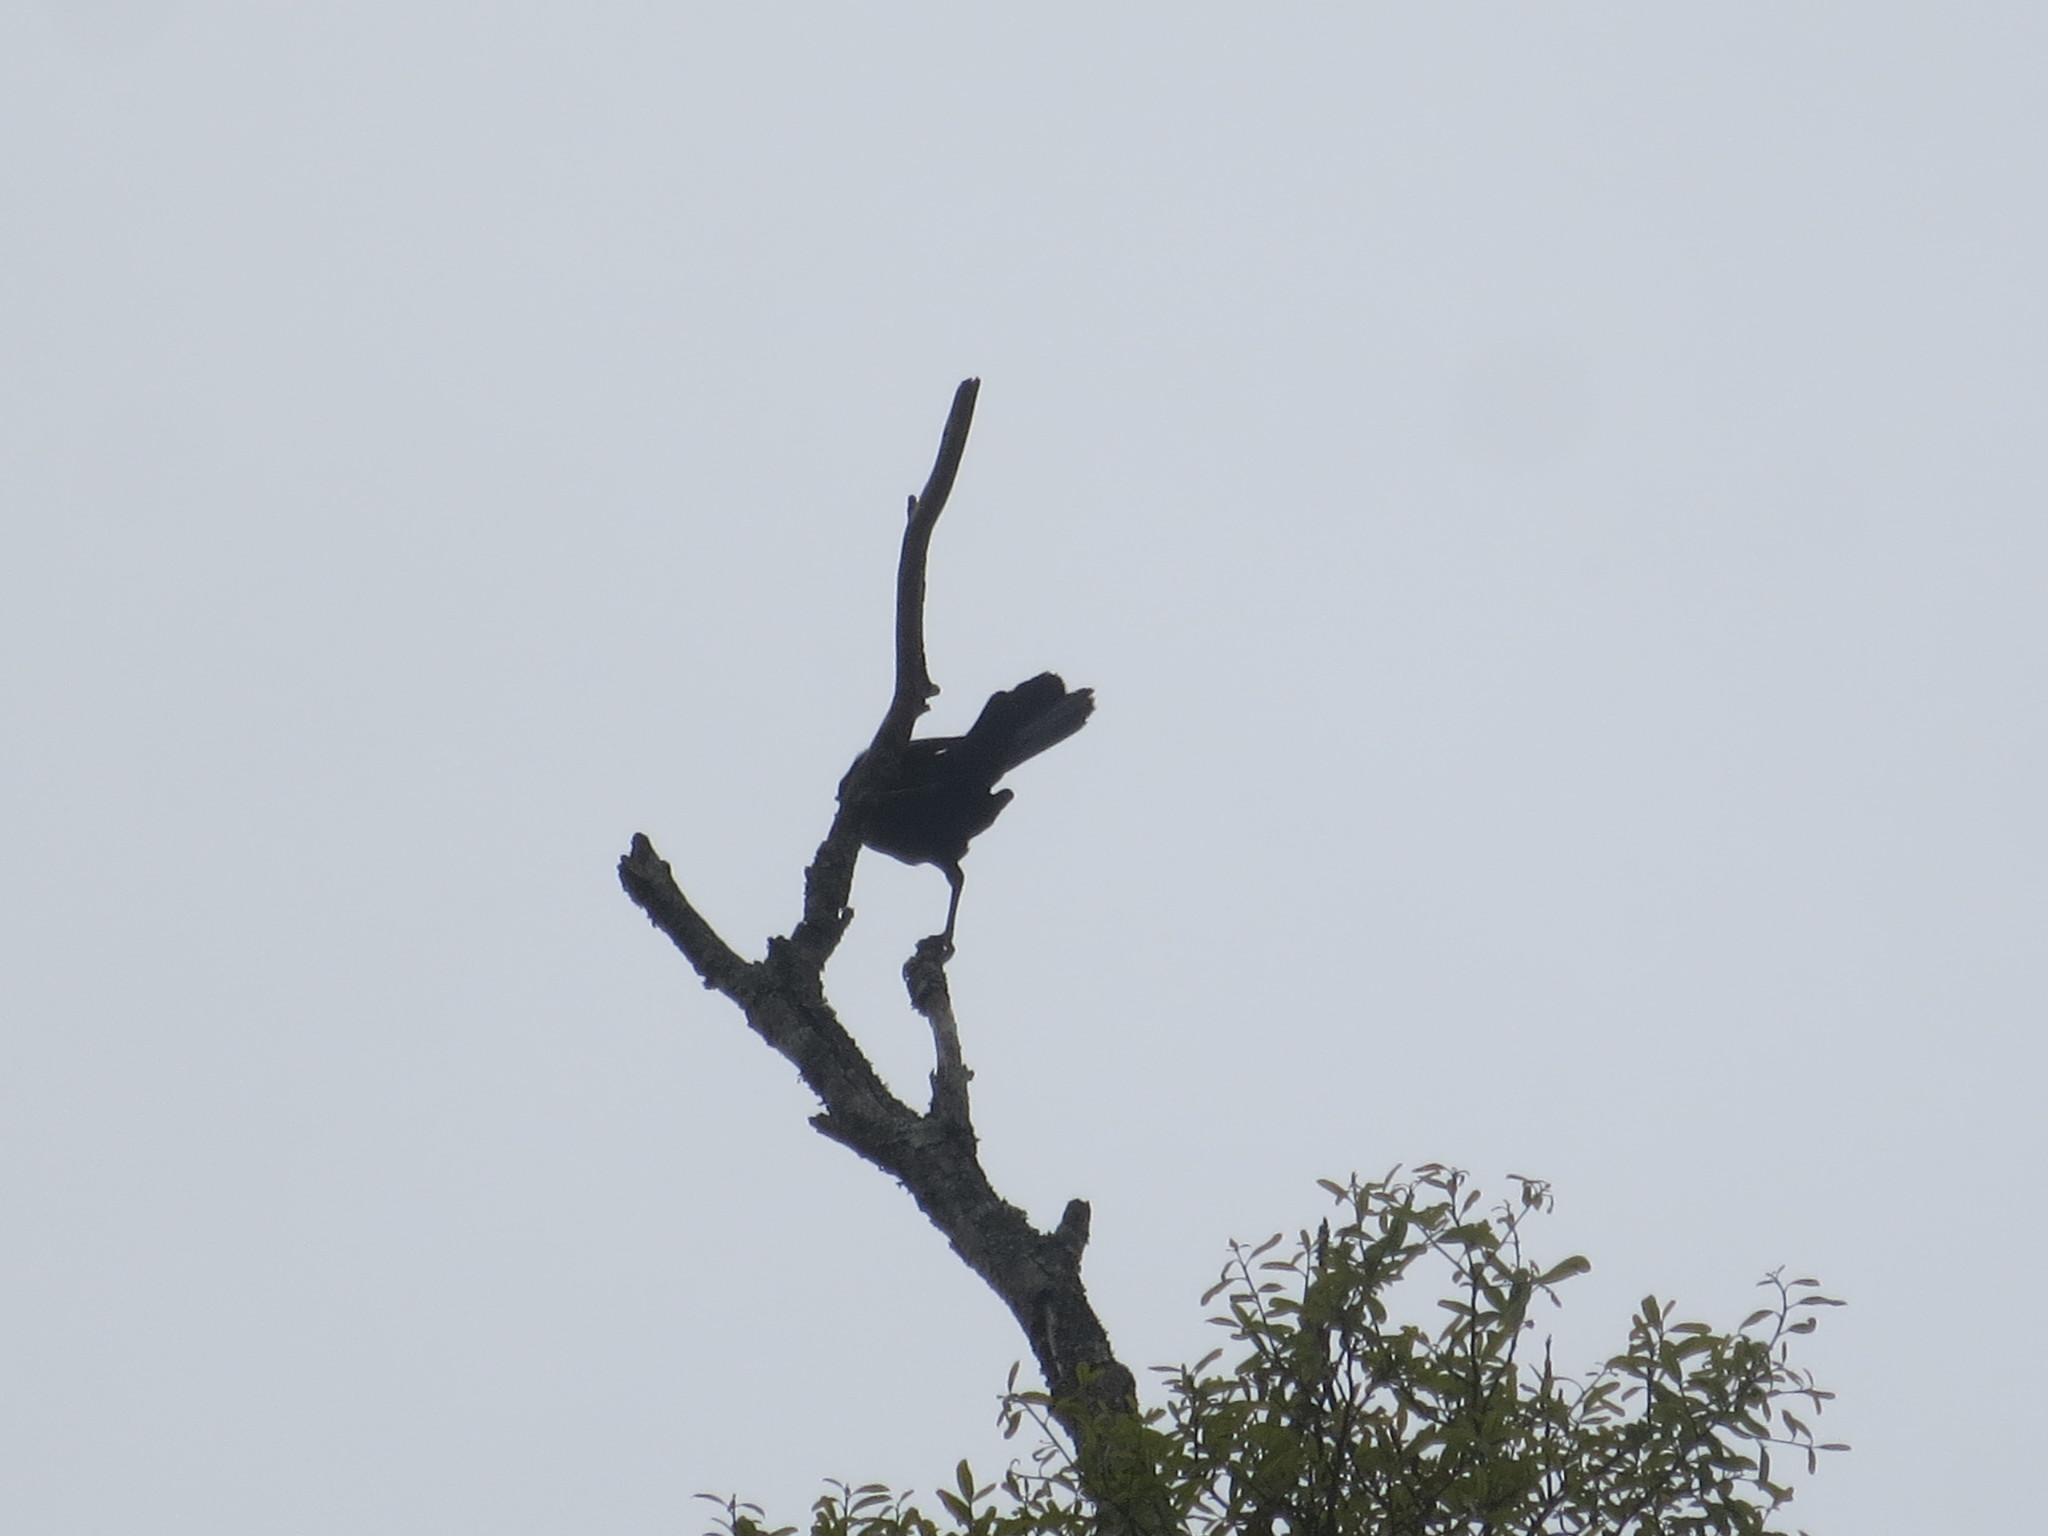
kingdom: Animalia
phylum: Chordata
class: Aves
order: Passeriformes
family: Icteridae
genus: Quiscalus
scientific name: Quiscalus major
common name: Boat-tailed grackle
